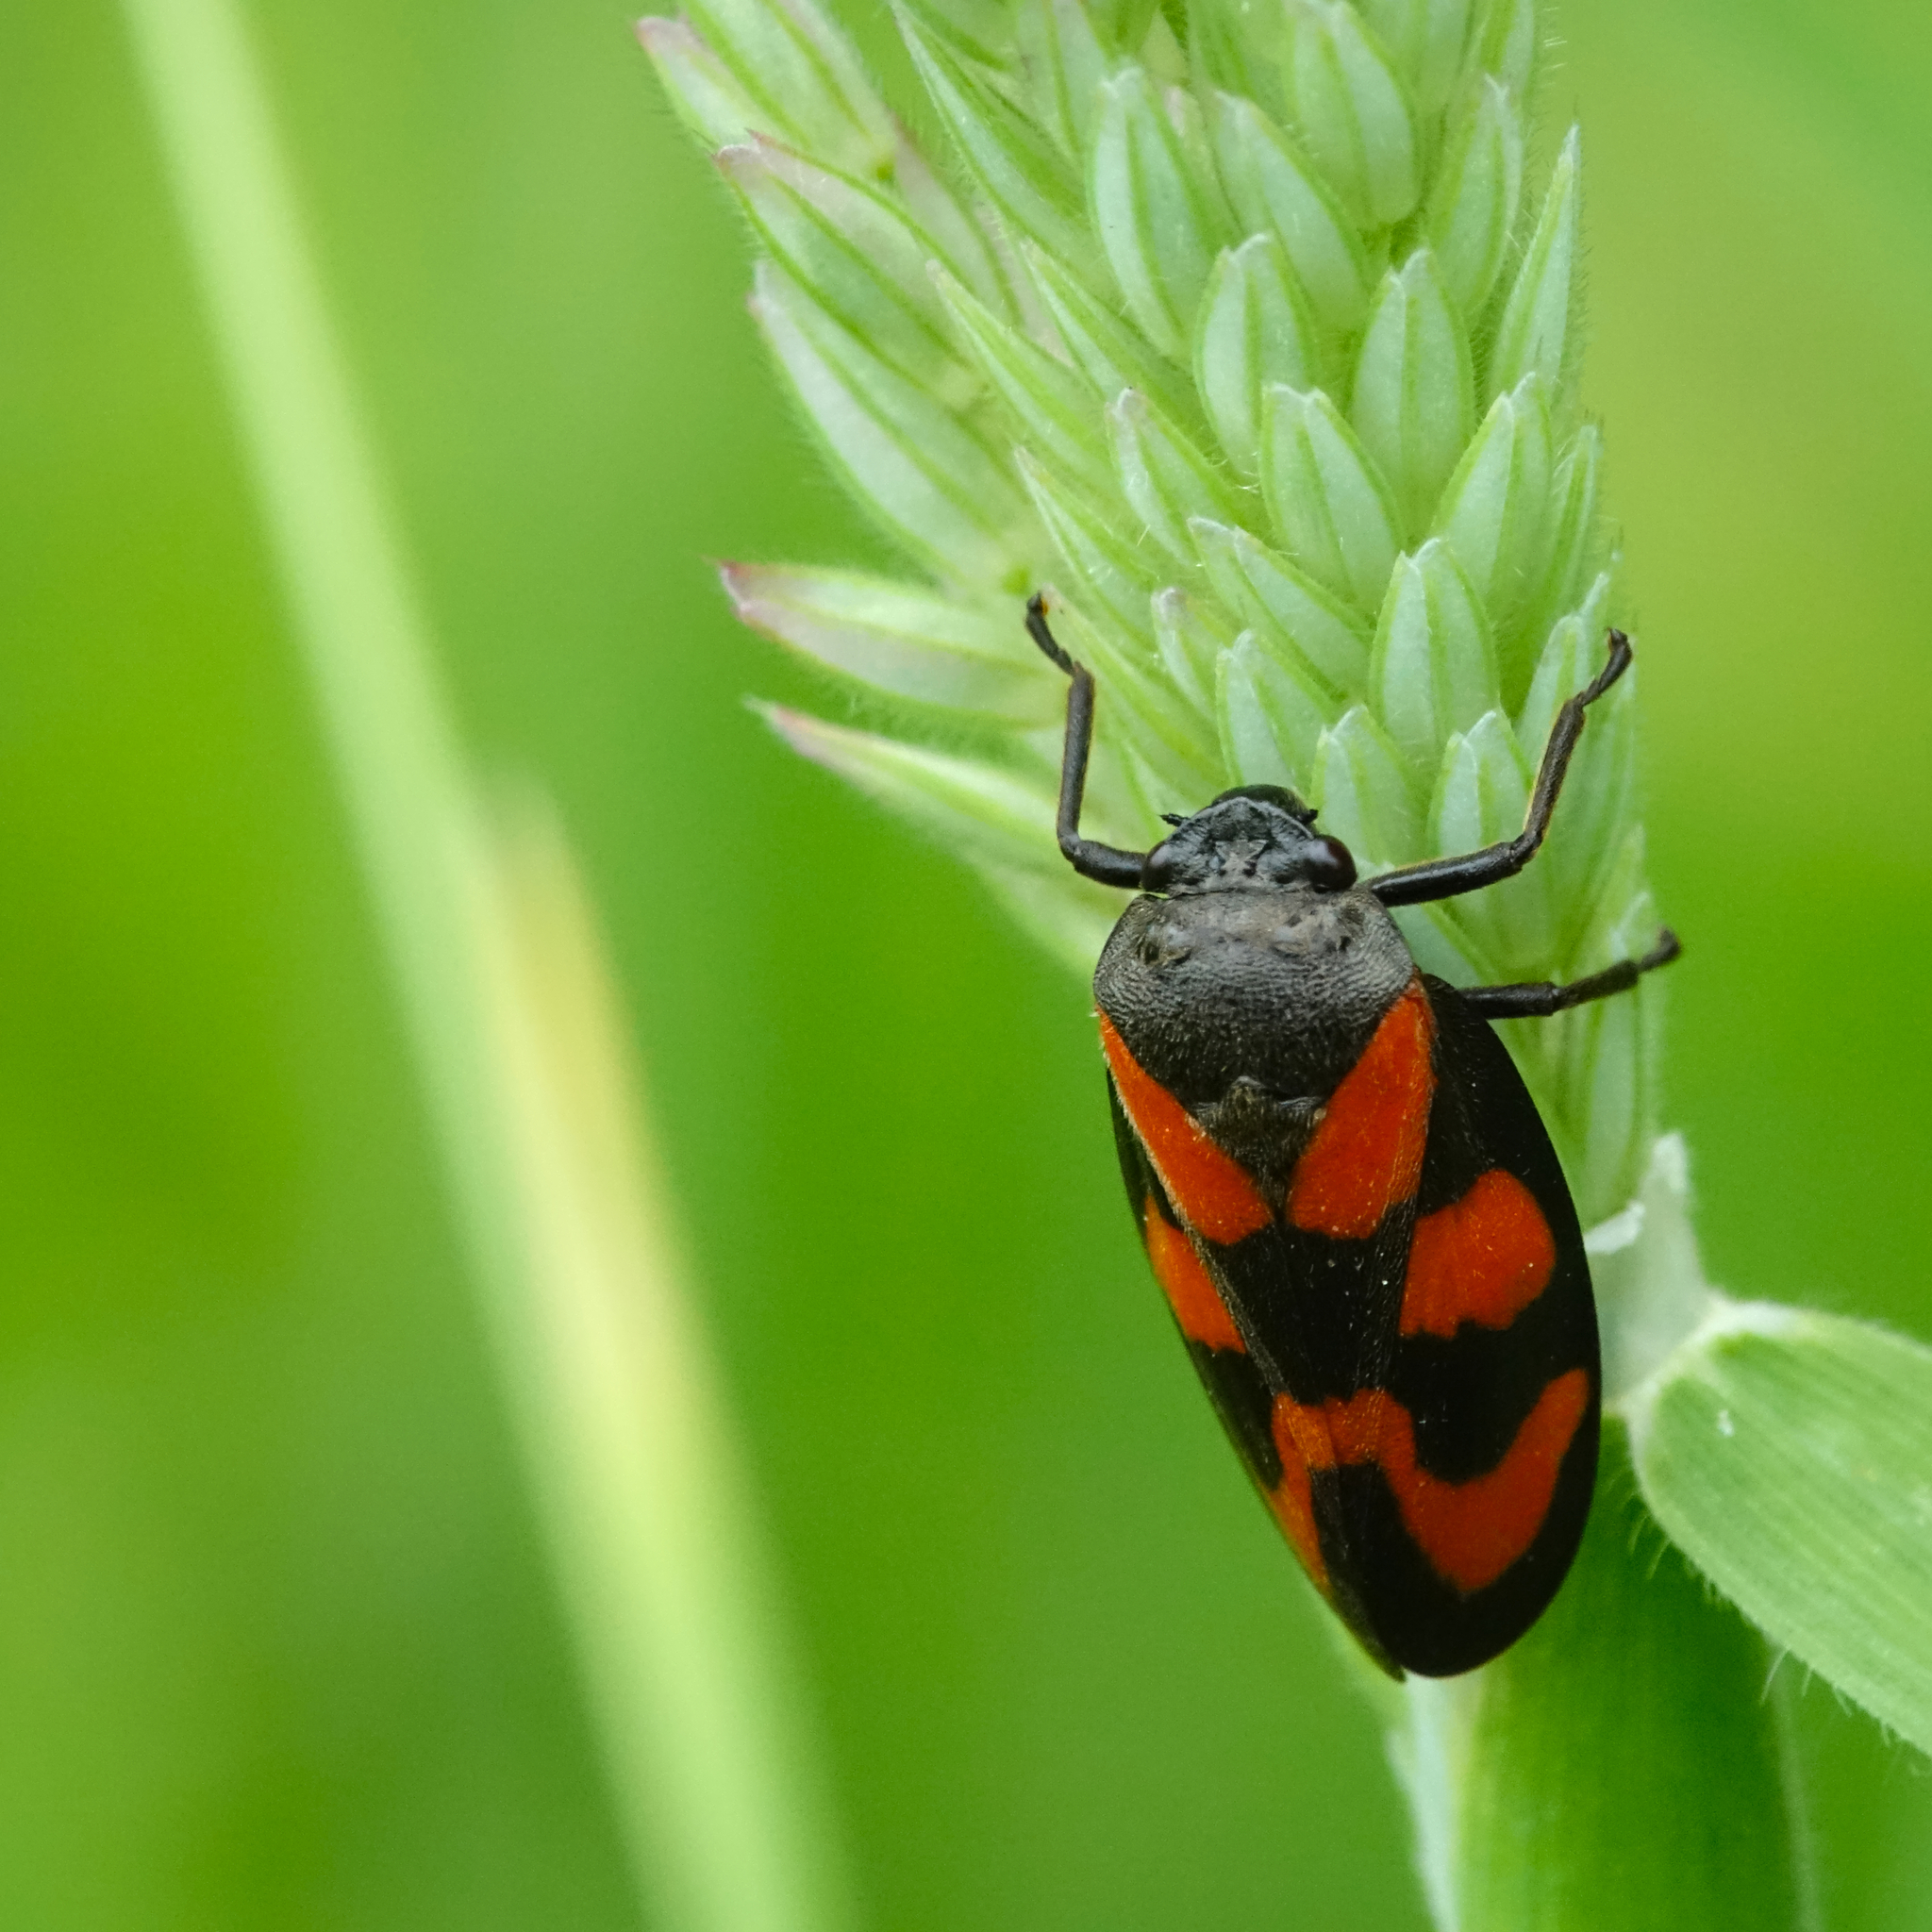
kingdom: Animalia
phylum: Arthropoda
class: Insecta
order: Hemiptera
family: Cercopidae
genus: Cercopis
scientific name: Cercopis vulnerata
